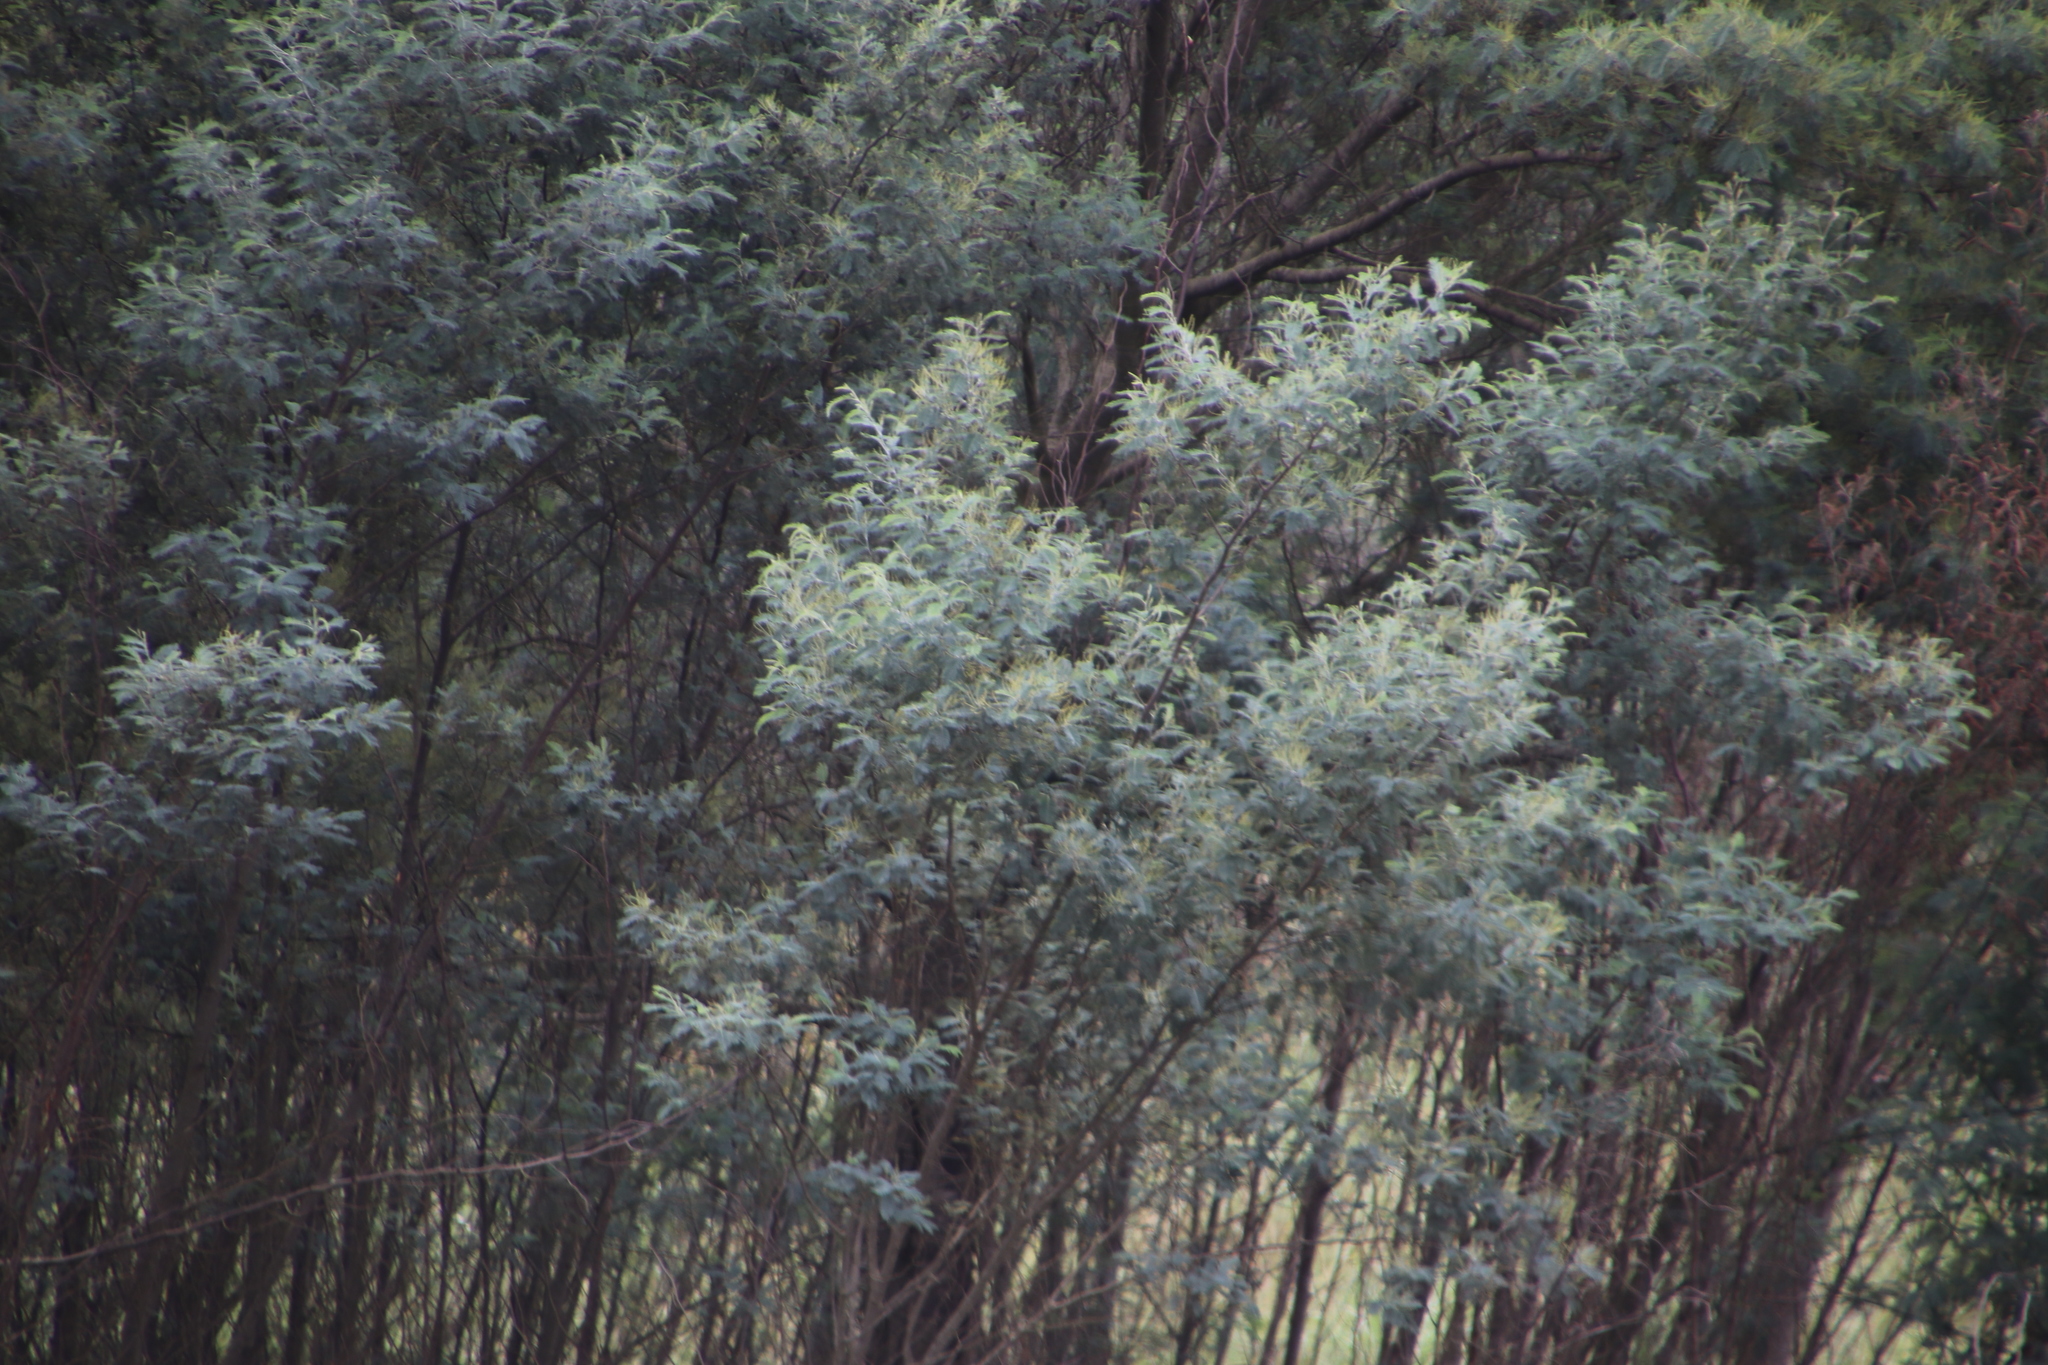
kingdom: Plantae
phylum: Tracheophyta
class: Magnoliopsida
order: Fabales
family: Fabaceae
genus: Acacia
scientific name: Acacia dealbata
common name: Silver wattle
